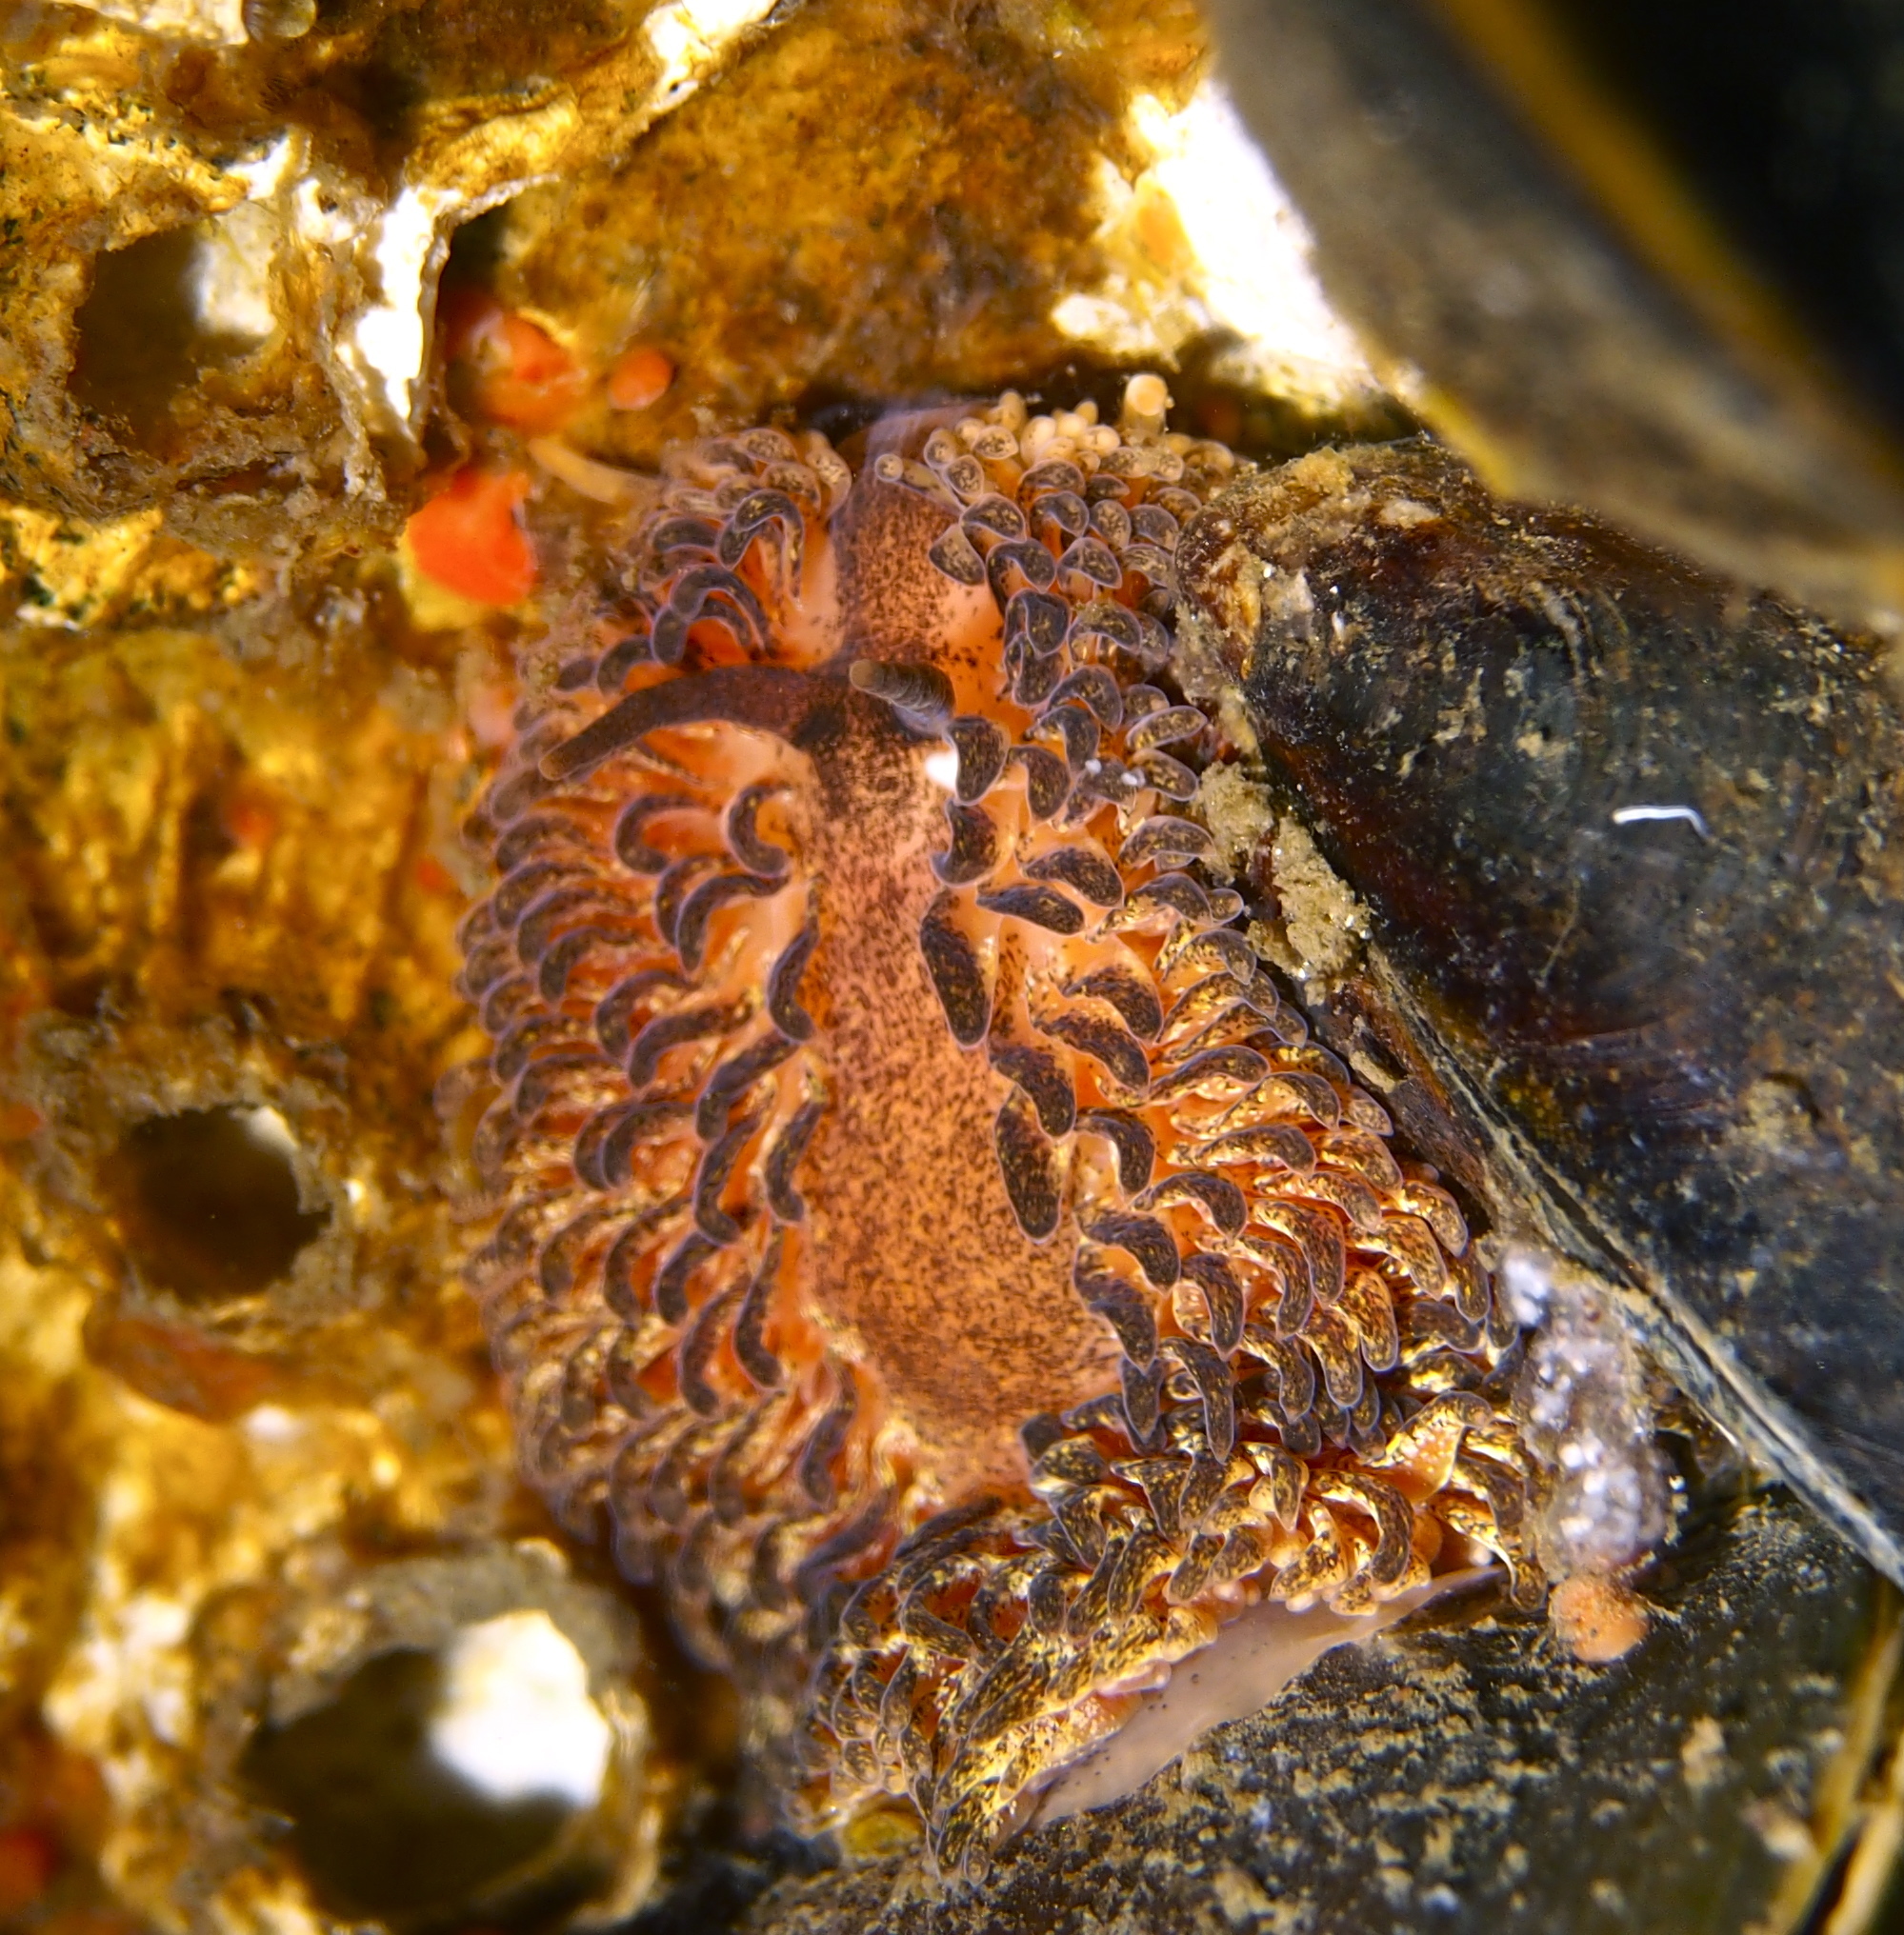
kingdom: Animalia
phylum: Mollusca
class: Gastropoda
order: Nudibranchia
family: Aeolidiidae
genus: Aeolidia
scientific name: Aeolidia papillosa
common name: Common grey sea slug
